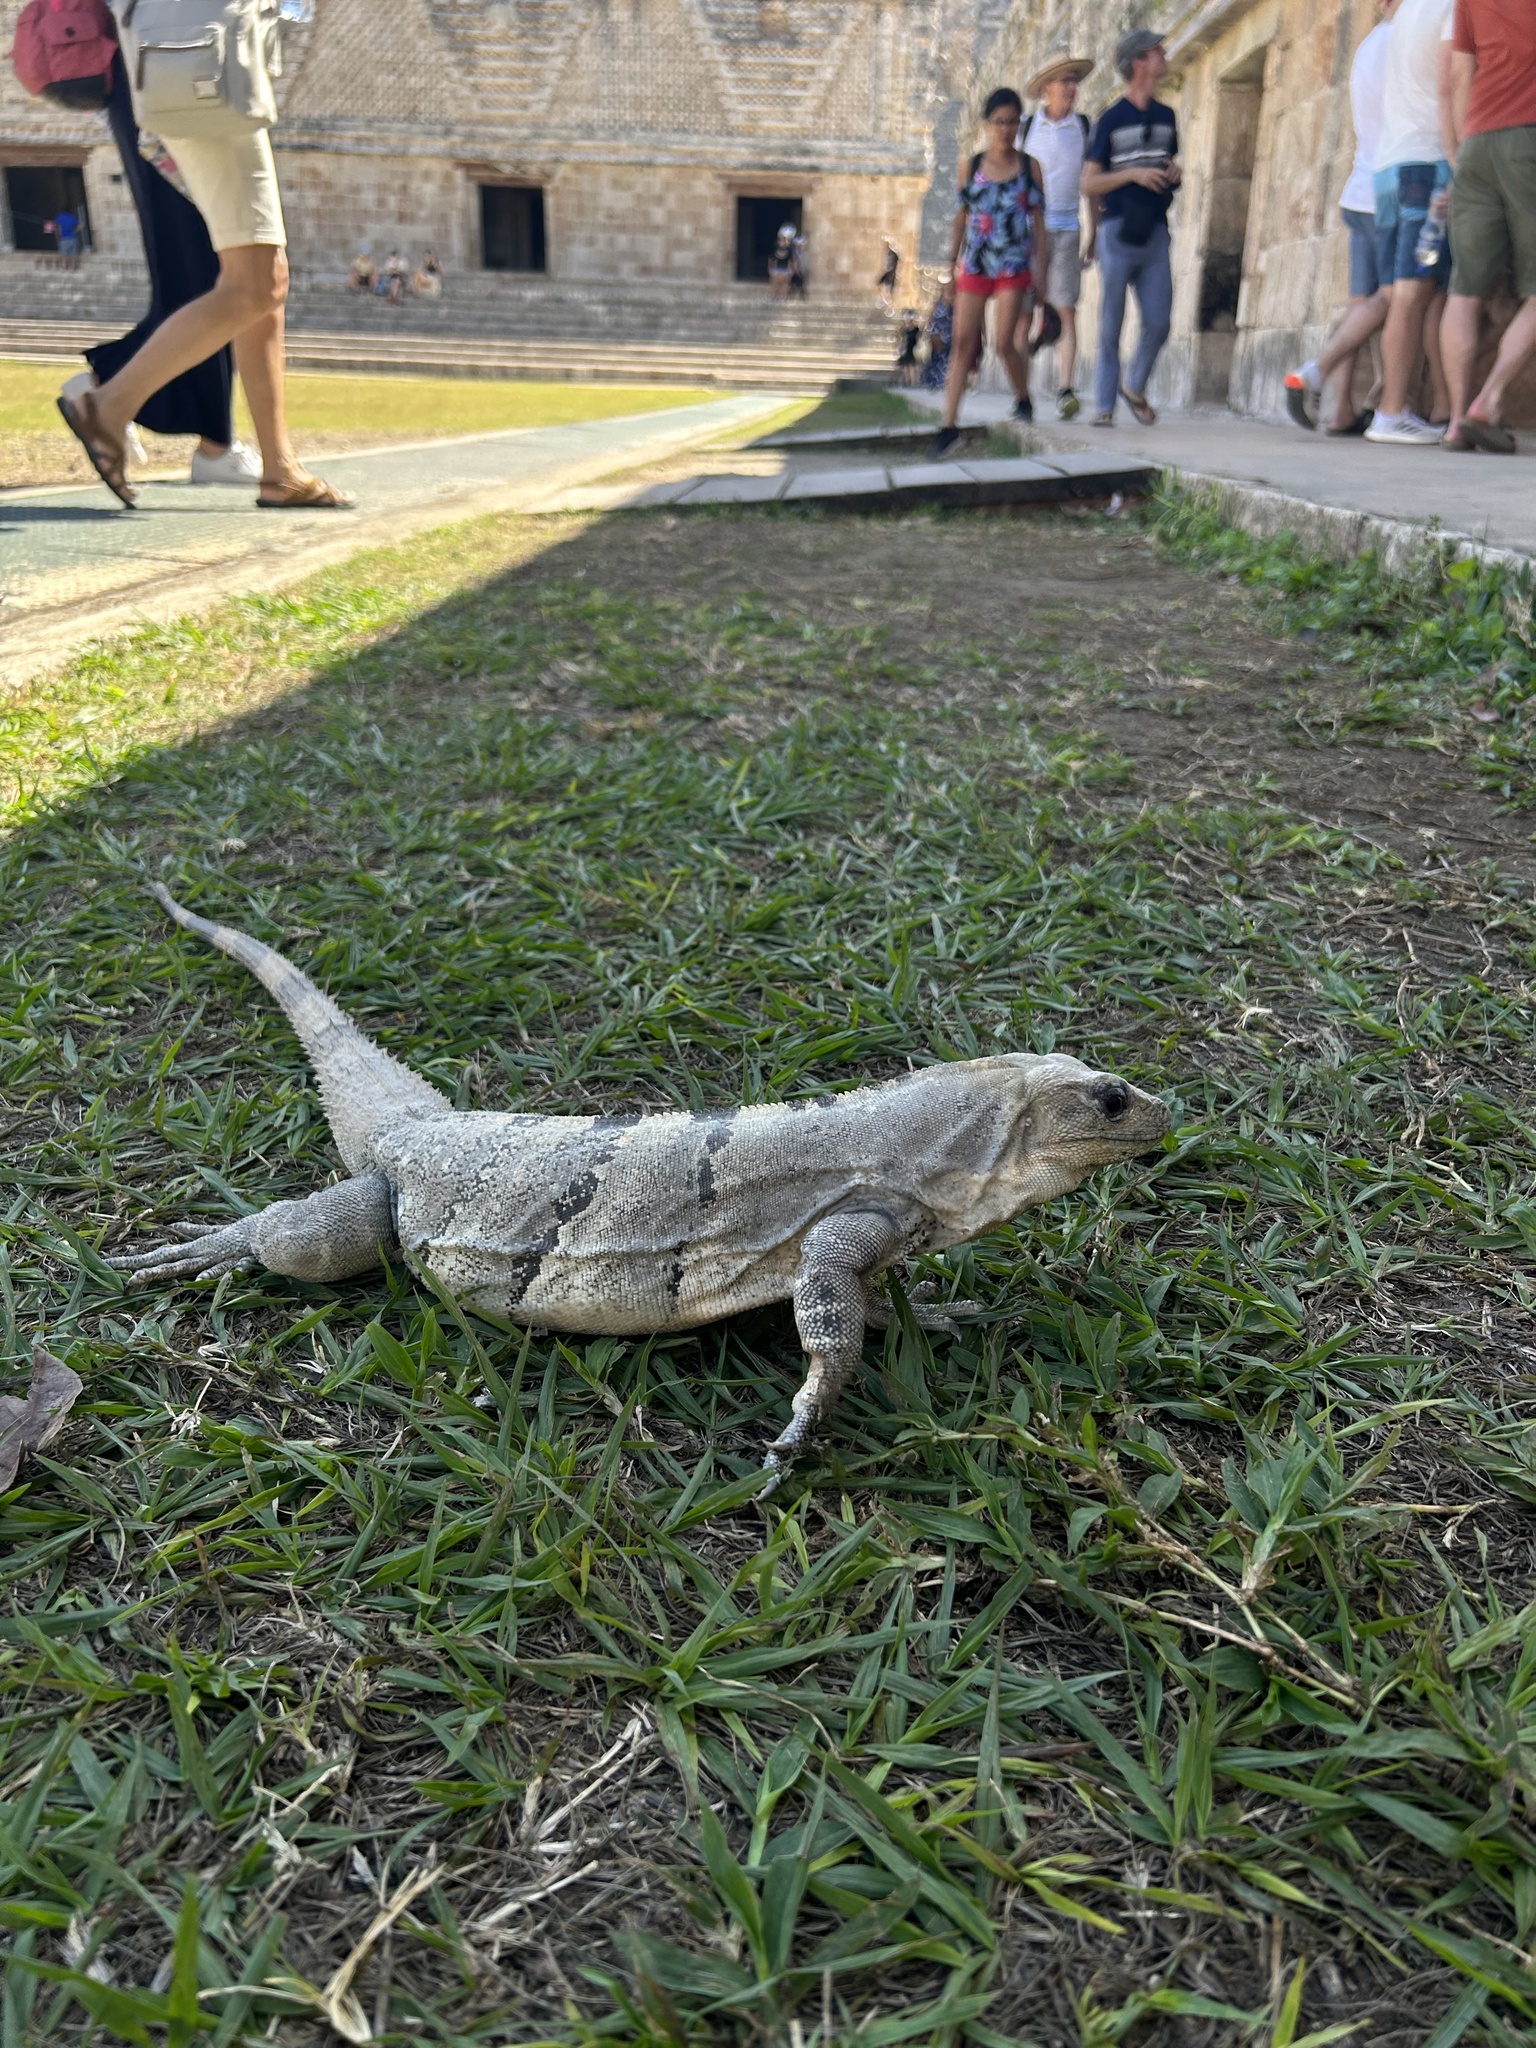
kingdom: Animalia
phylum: Chordata
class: Squamata
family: Iguanidae
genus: Ctenosaura
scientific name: Ctenosaura similis
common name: Black spiny-tailed iguana
